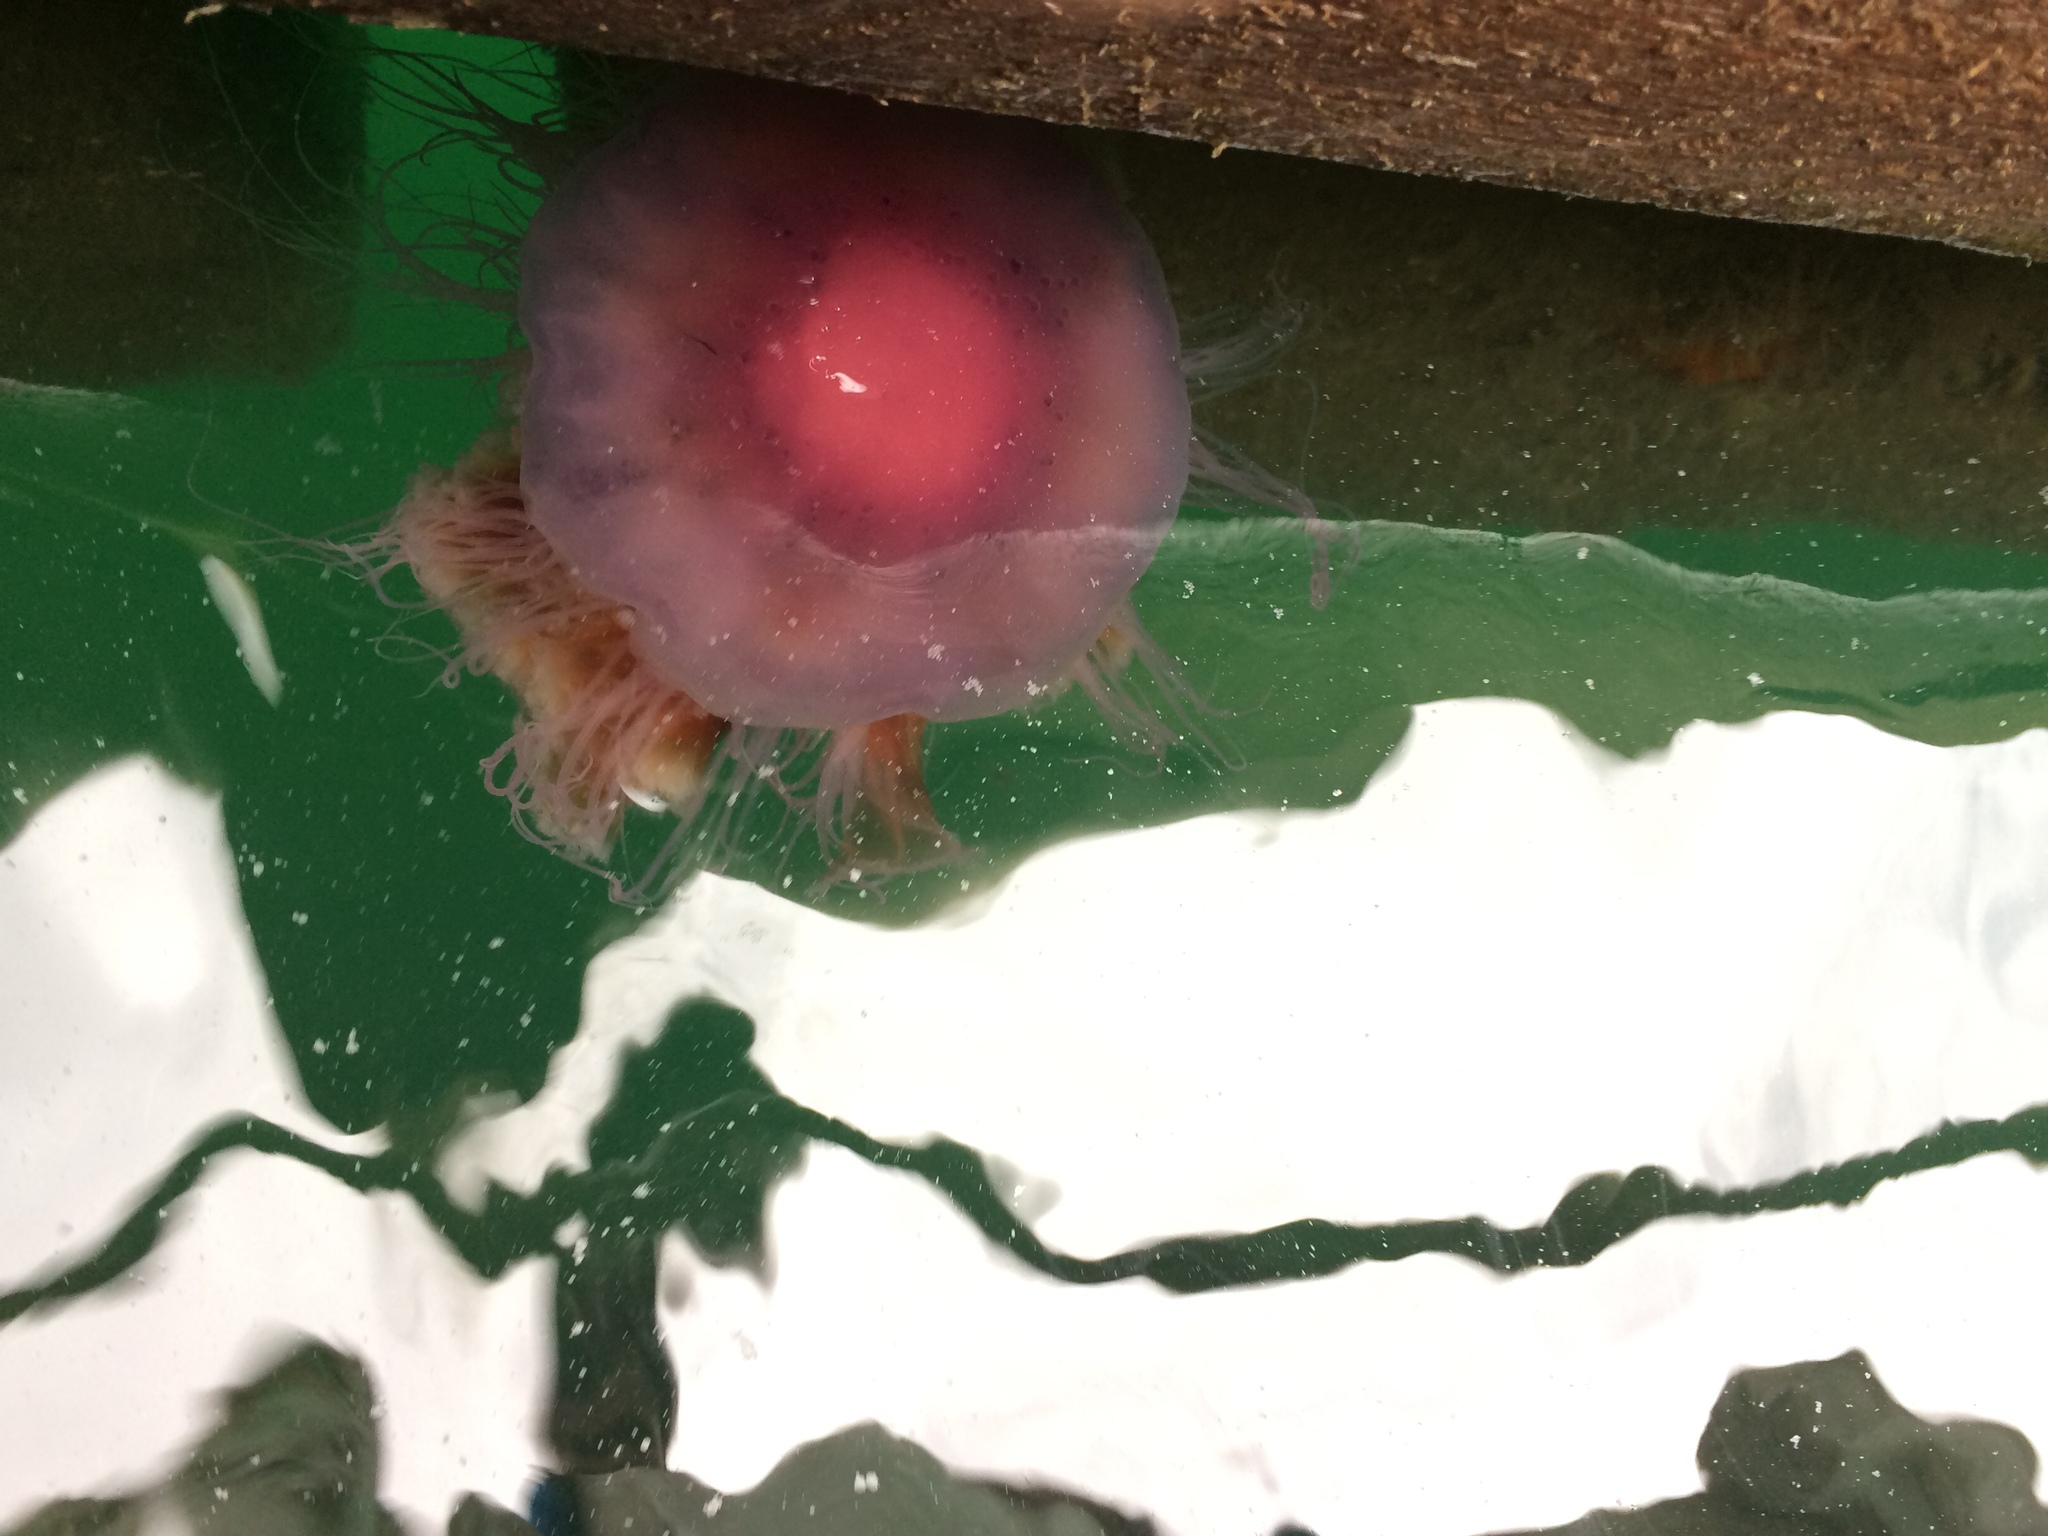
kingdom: Animalia
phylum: Cnidaria
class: Scyphozoa
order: Semaeostomeae
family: Cyaneidae
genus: Cyanea
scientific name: Cyanea
